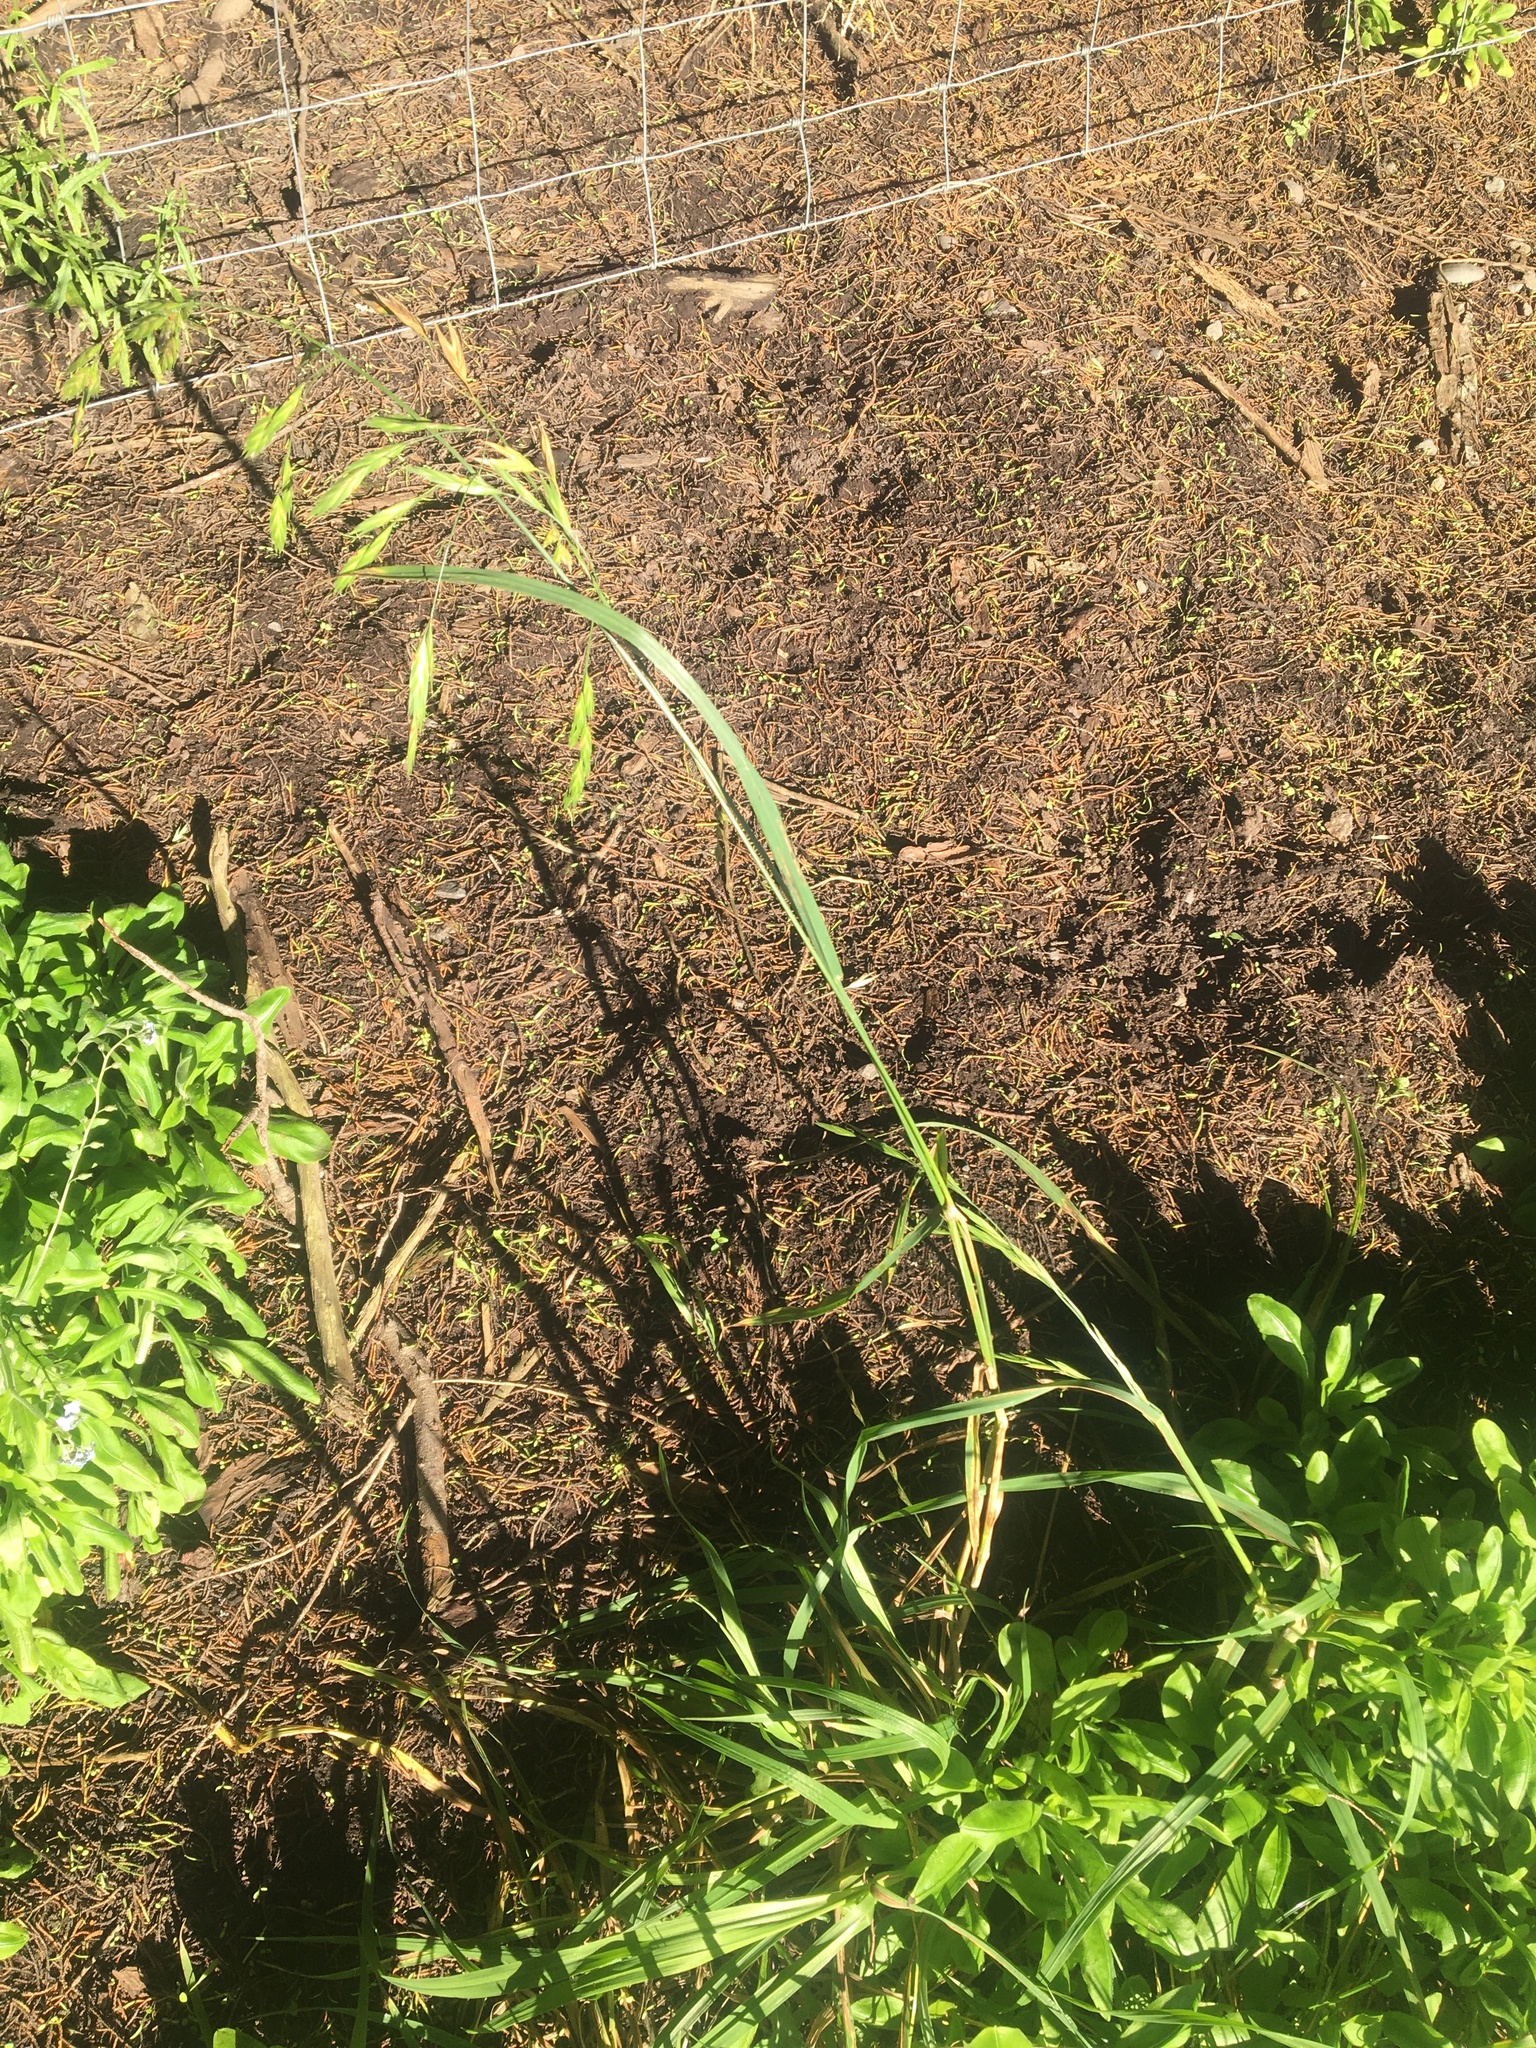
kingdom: Plantae
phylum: Tracheophyta
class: Liliopsida
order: Poales
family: Poaceae
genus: Bromus
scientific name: Bromus catharticus
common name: Rescuegrass
